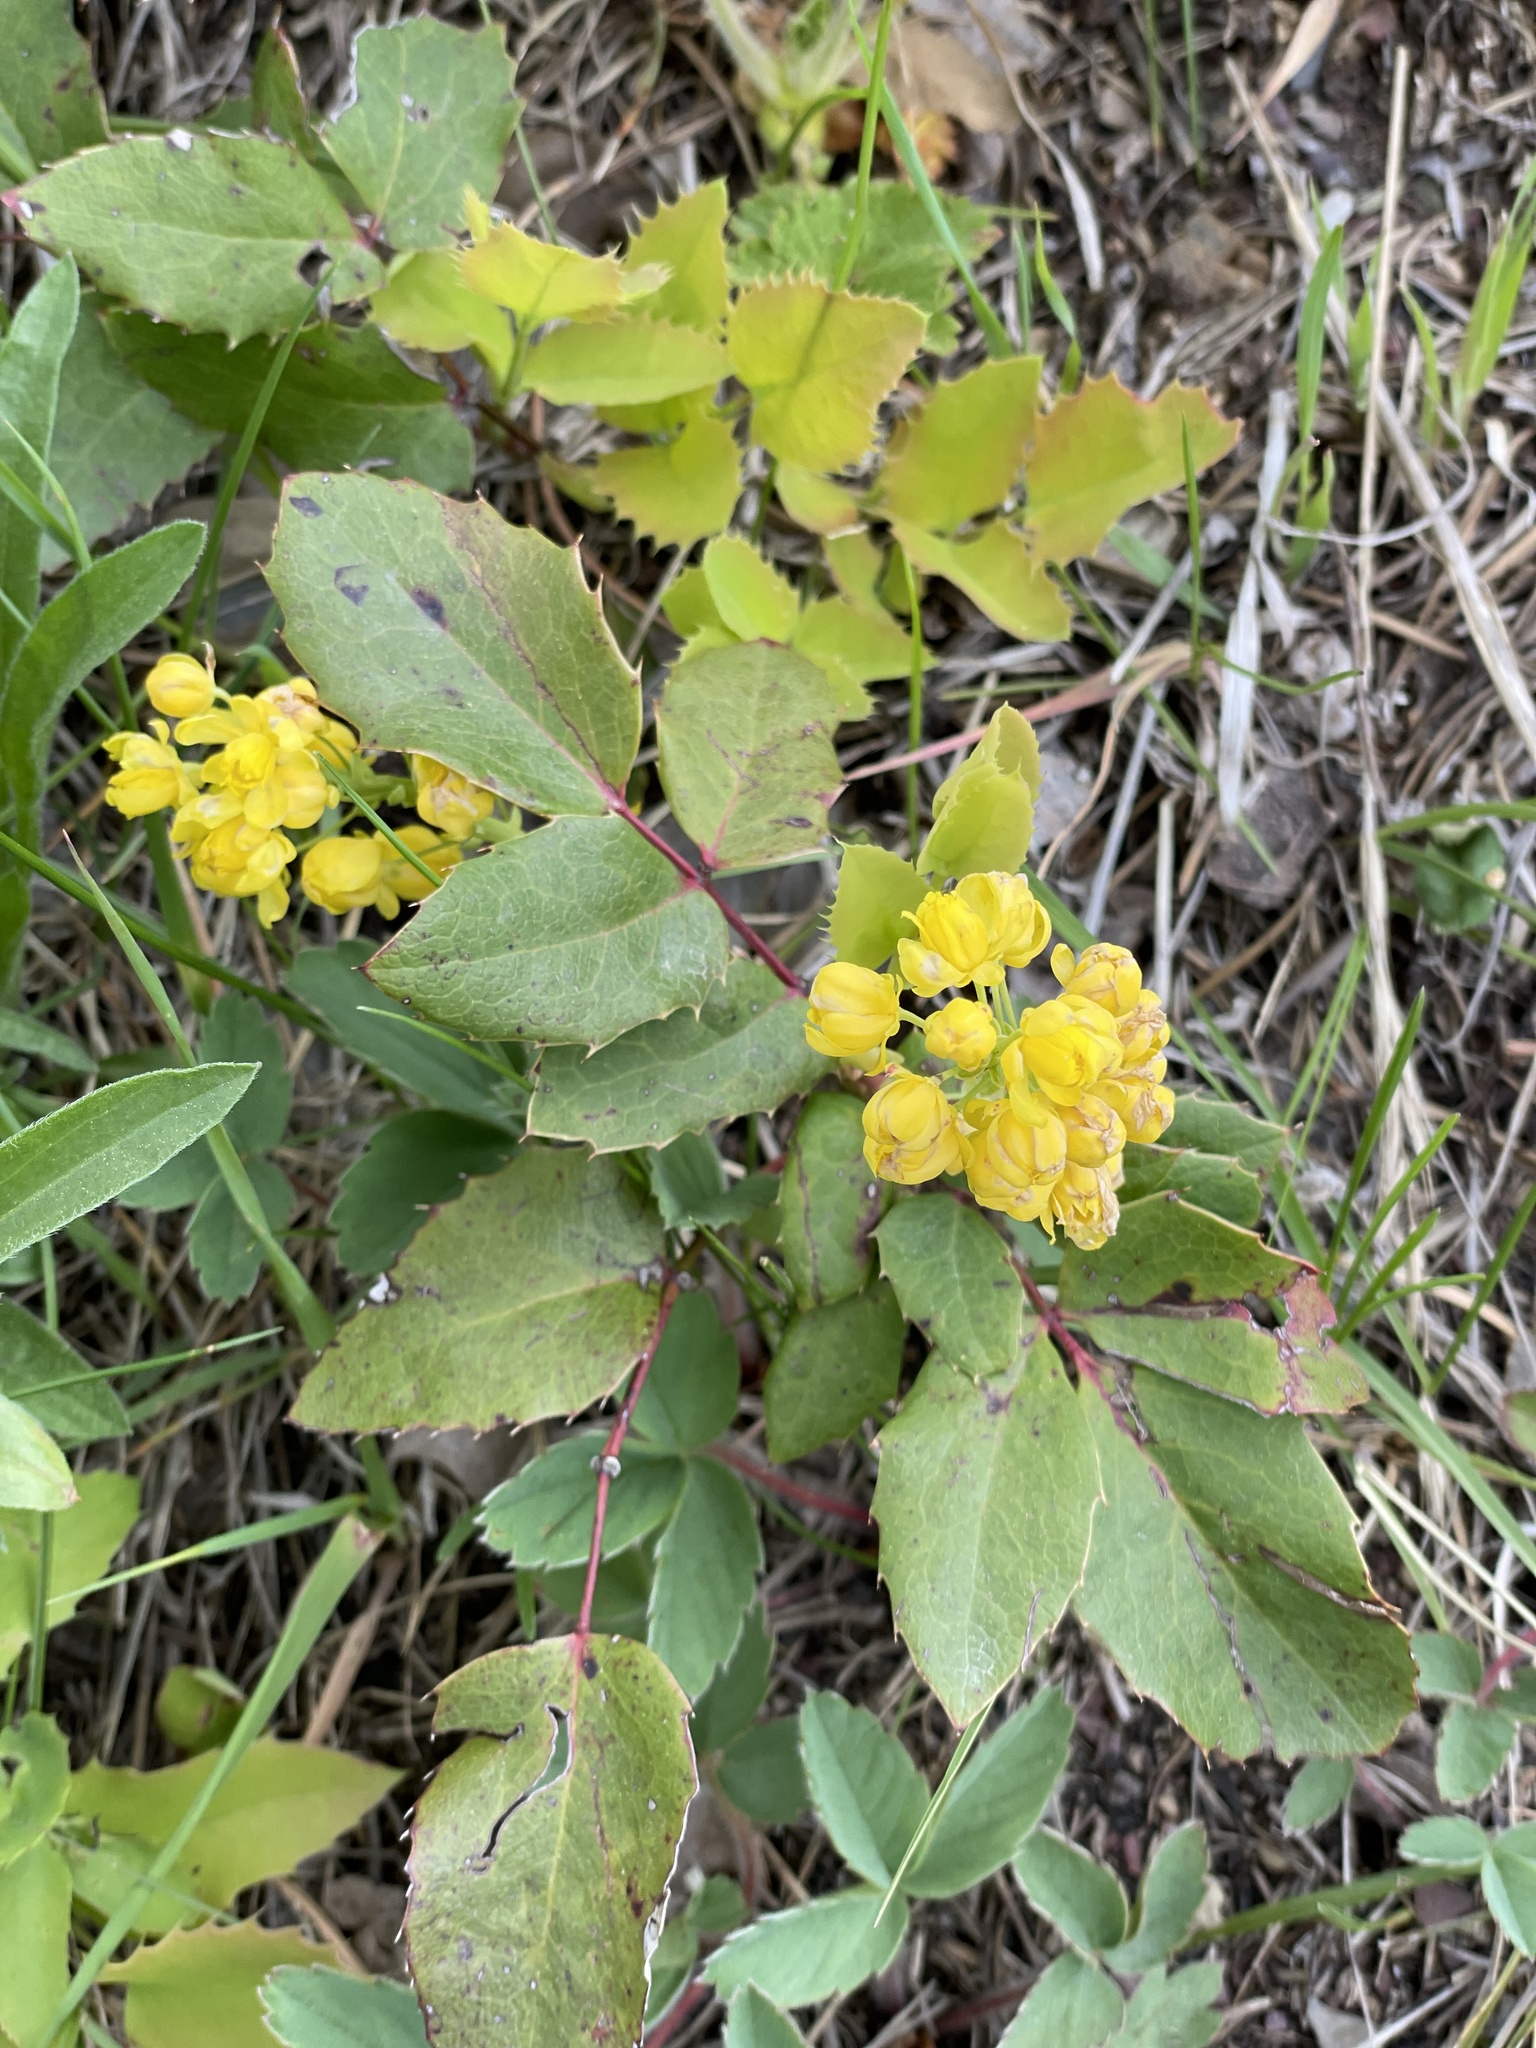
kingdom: Plantae
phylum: Tracheophyta
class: Magnoliopsida
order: Ranunculales
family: Berberidaceae
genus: Mahonia
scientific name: Mahonia repens
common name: Creeping oregon-grape
